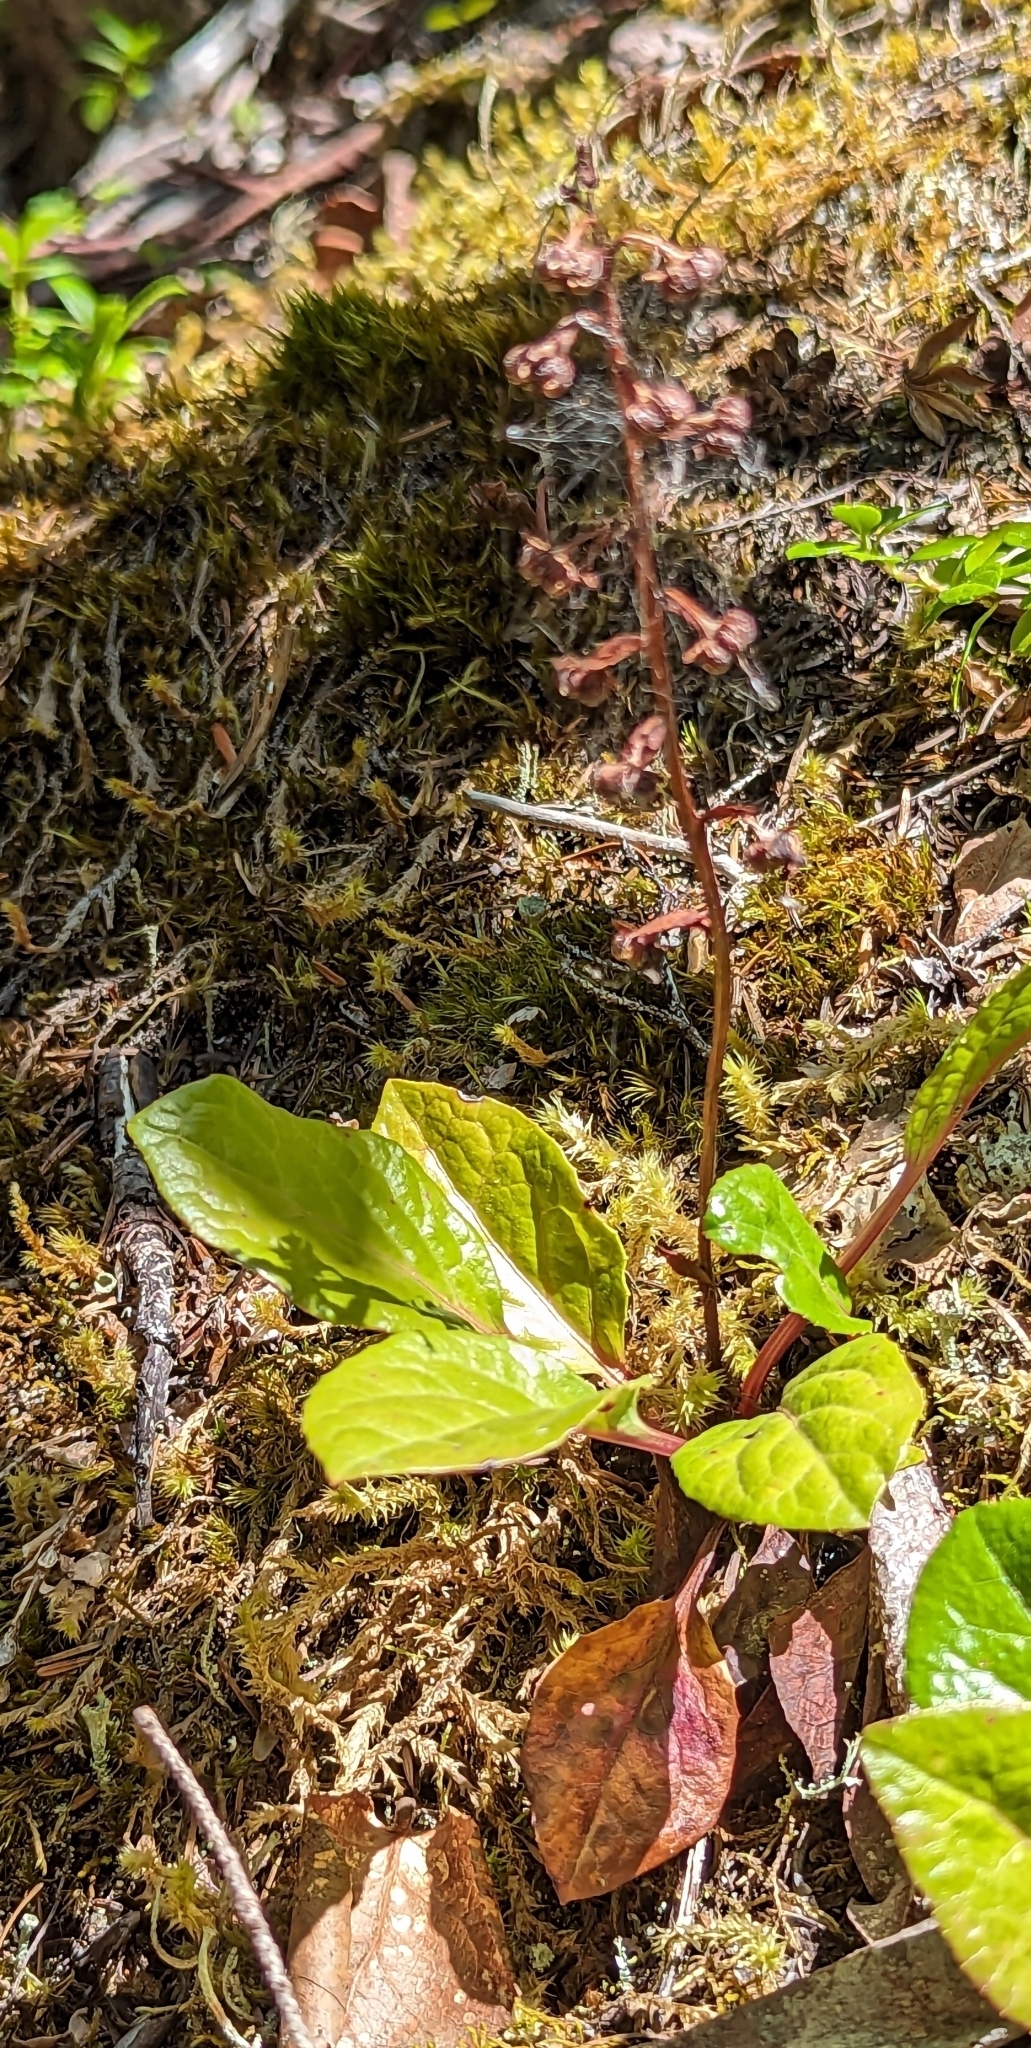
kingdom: Plantae
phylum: Tracheophyta
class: Magnoliopsida
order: Ericales
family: Ericaceae
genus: Pyrola
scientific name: Pyrola asarifolia
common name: Bog wintergreen
